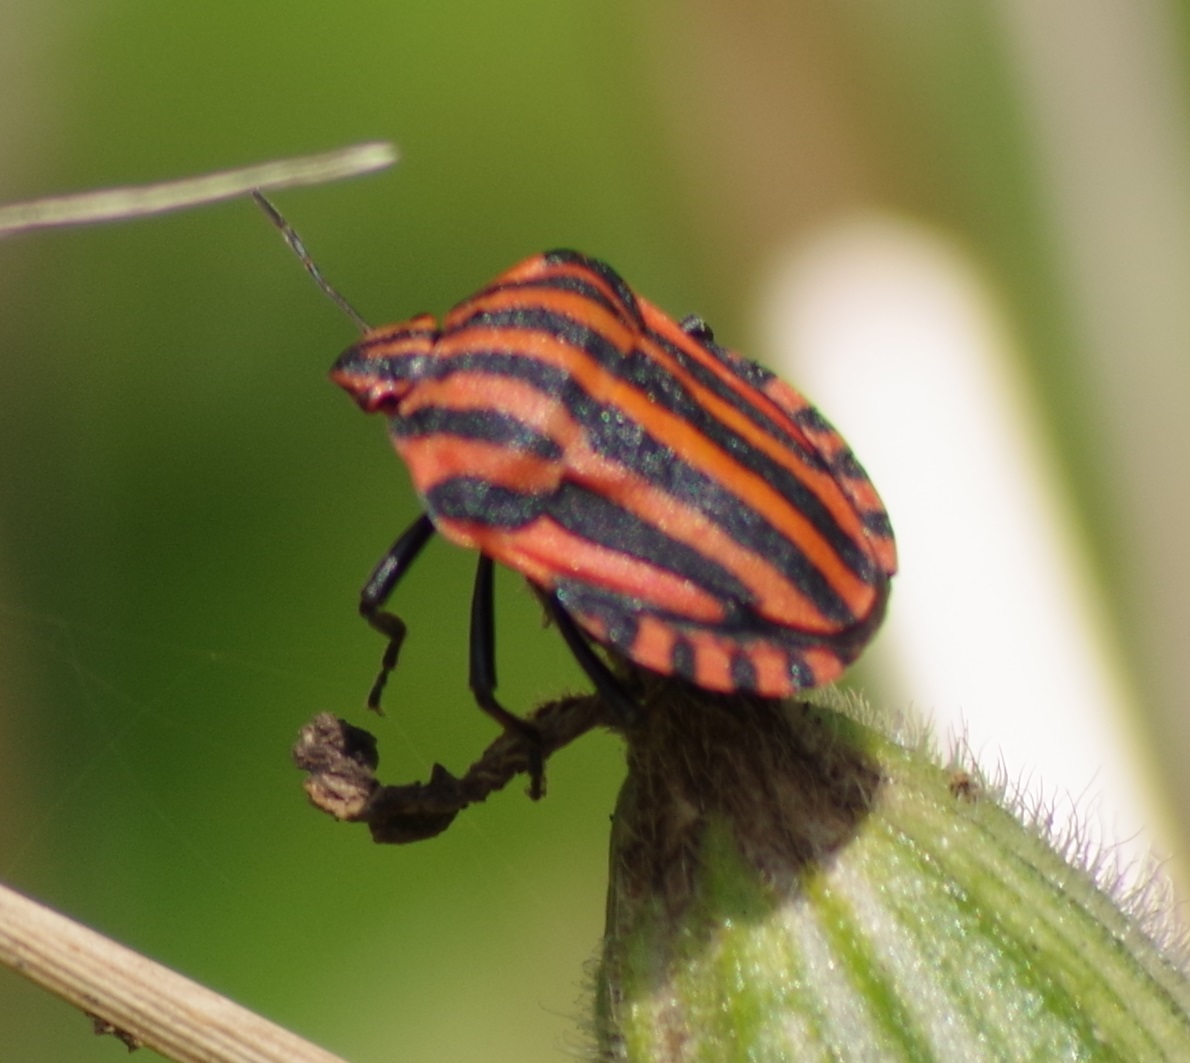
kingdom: Animalia
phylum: Arthropoda
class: Insecta
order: Hemiptera
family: Pentatomidae
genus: Graphosoma
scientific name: Graphosoma italicum
